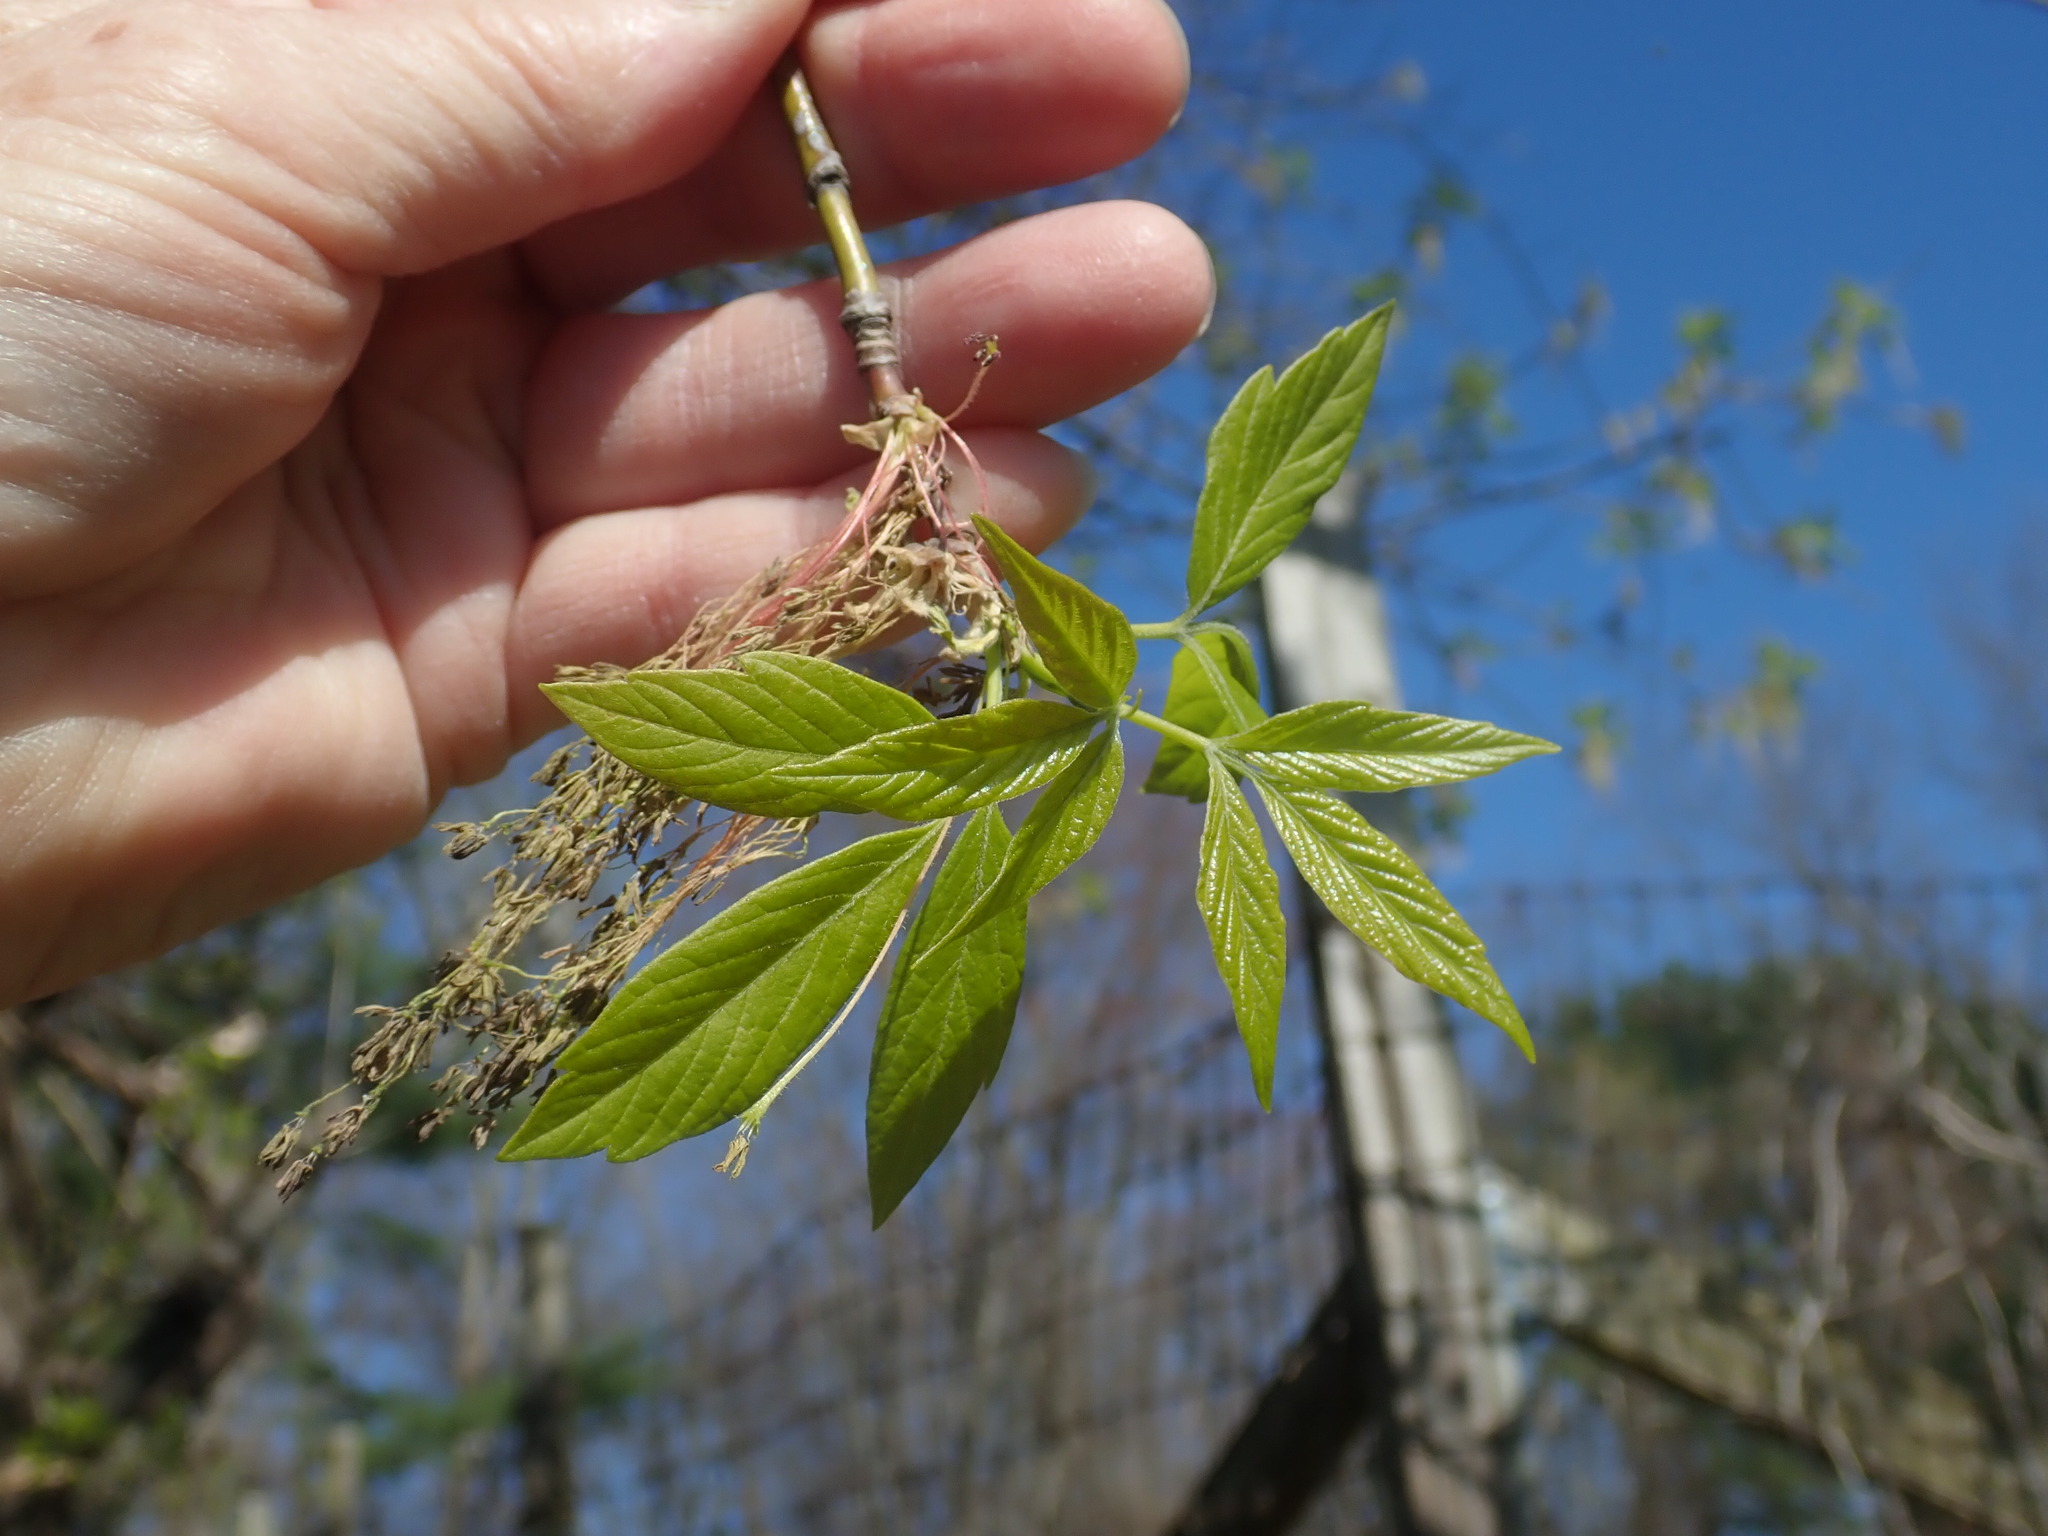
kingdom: Plantae
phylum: Tracheophyta
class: Magnoliopsida
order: Sapindales
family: Sapindaceae
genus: Acer
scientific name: Acer negundo
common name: Ashleaf maple
